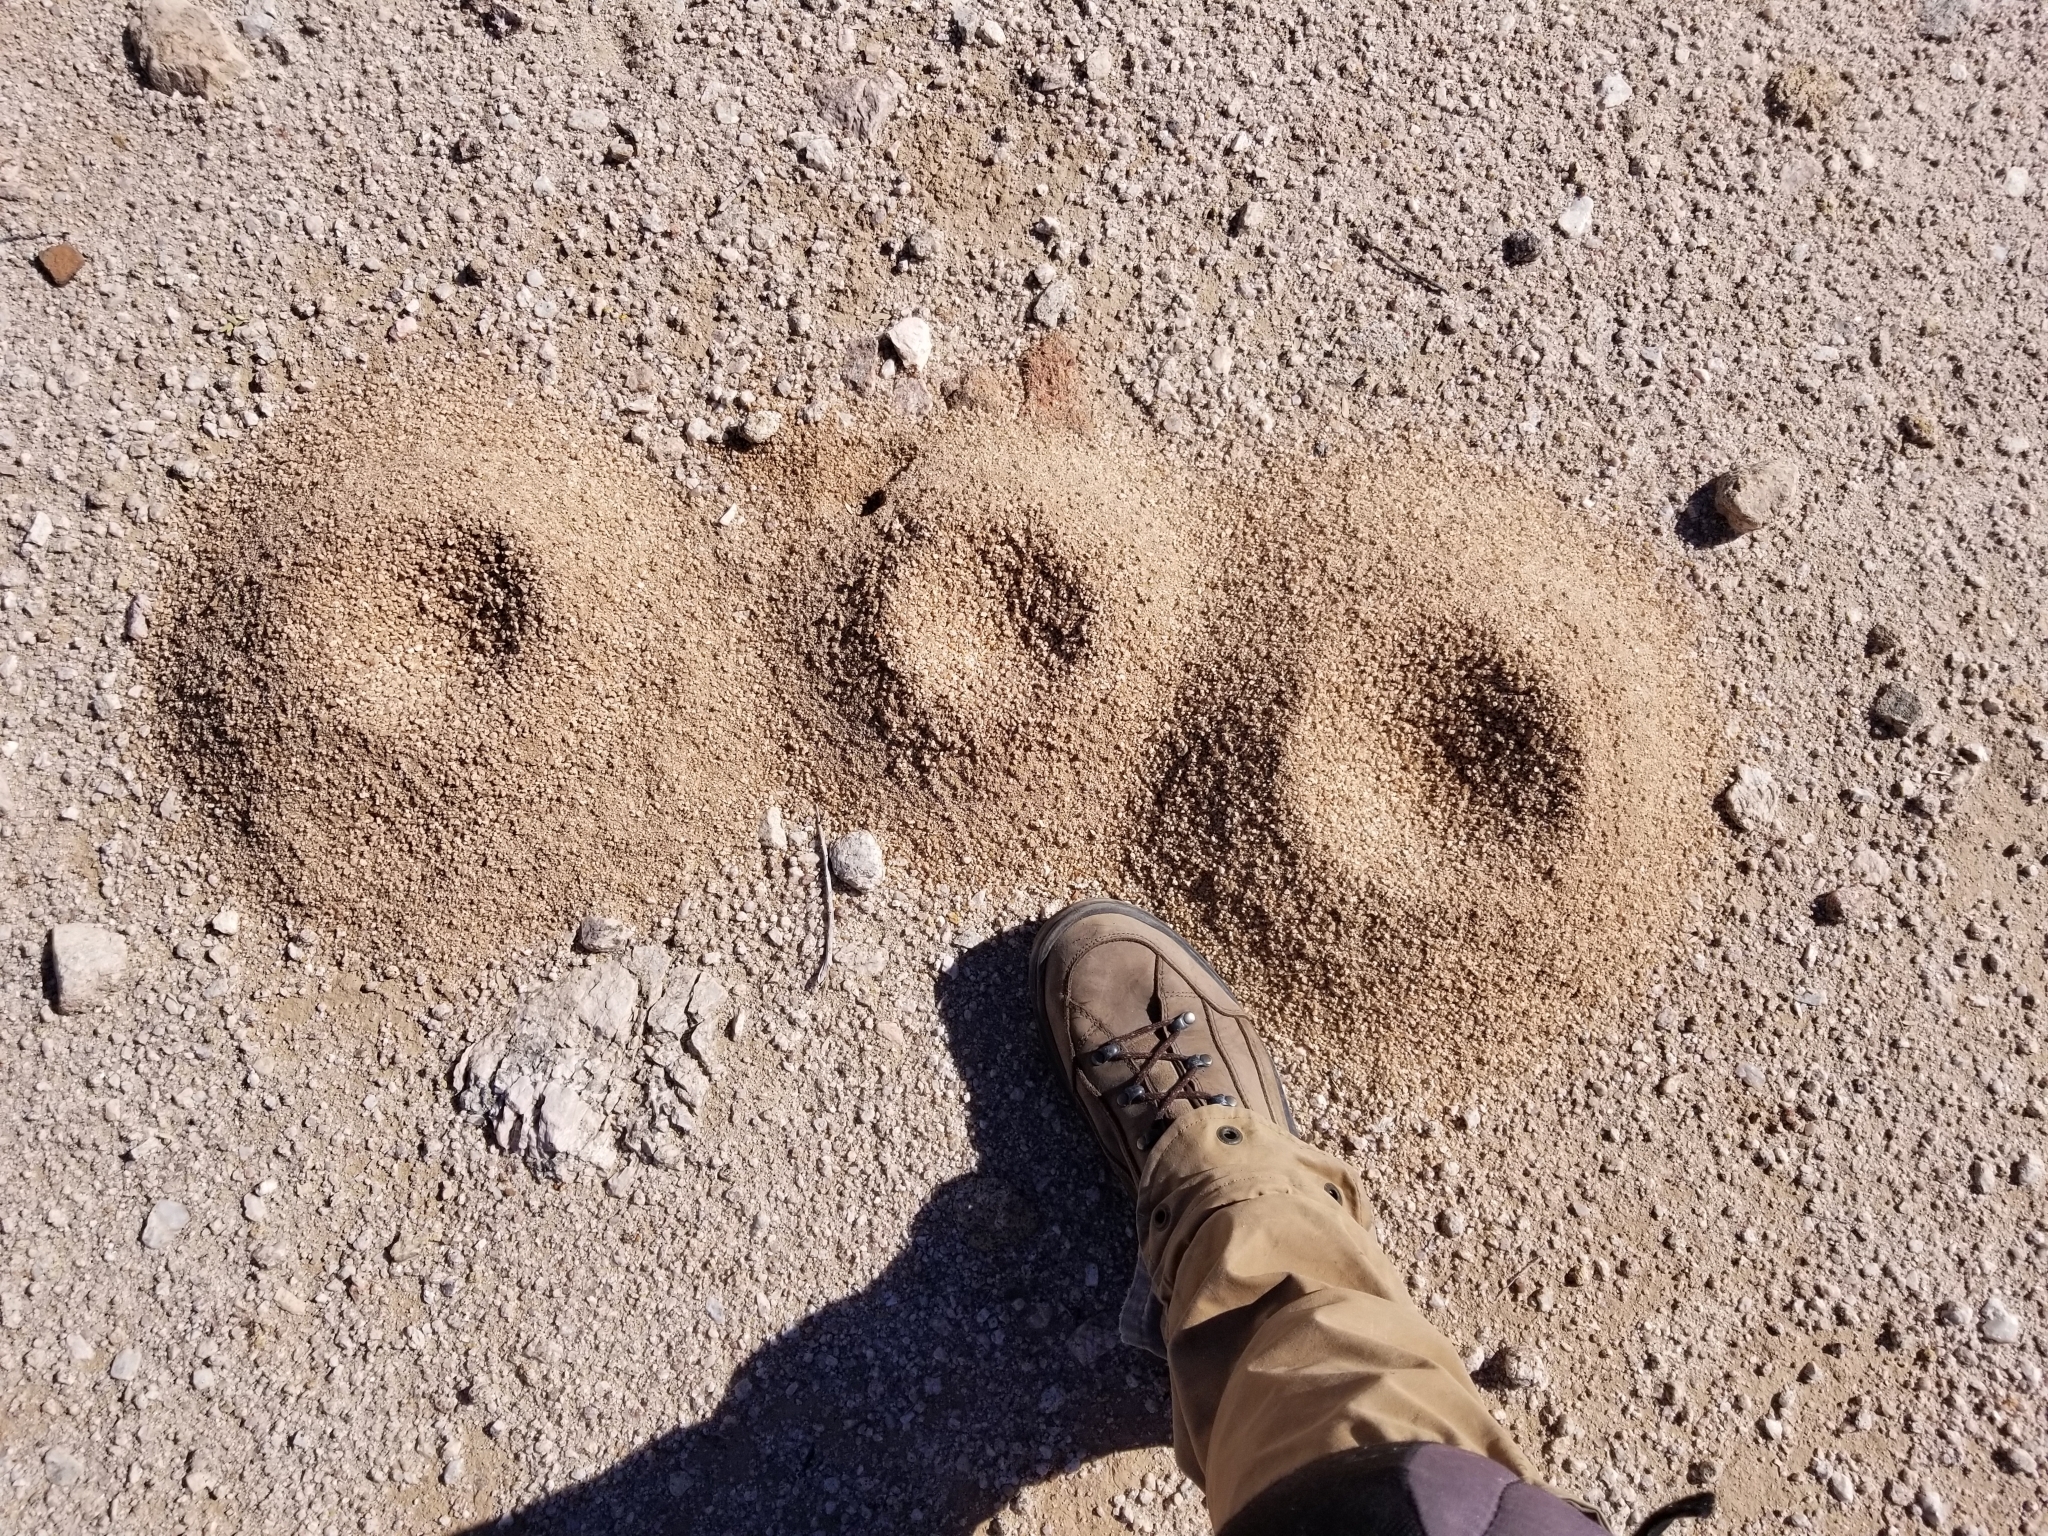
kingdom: Animalia
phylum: Arthropoda
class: Insecta
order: Hymenoptera
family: Formicidae
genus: Acromyrmex
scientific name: Acromyrmex versicolor
